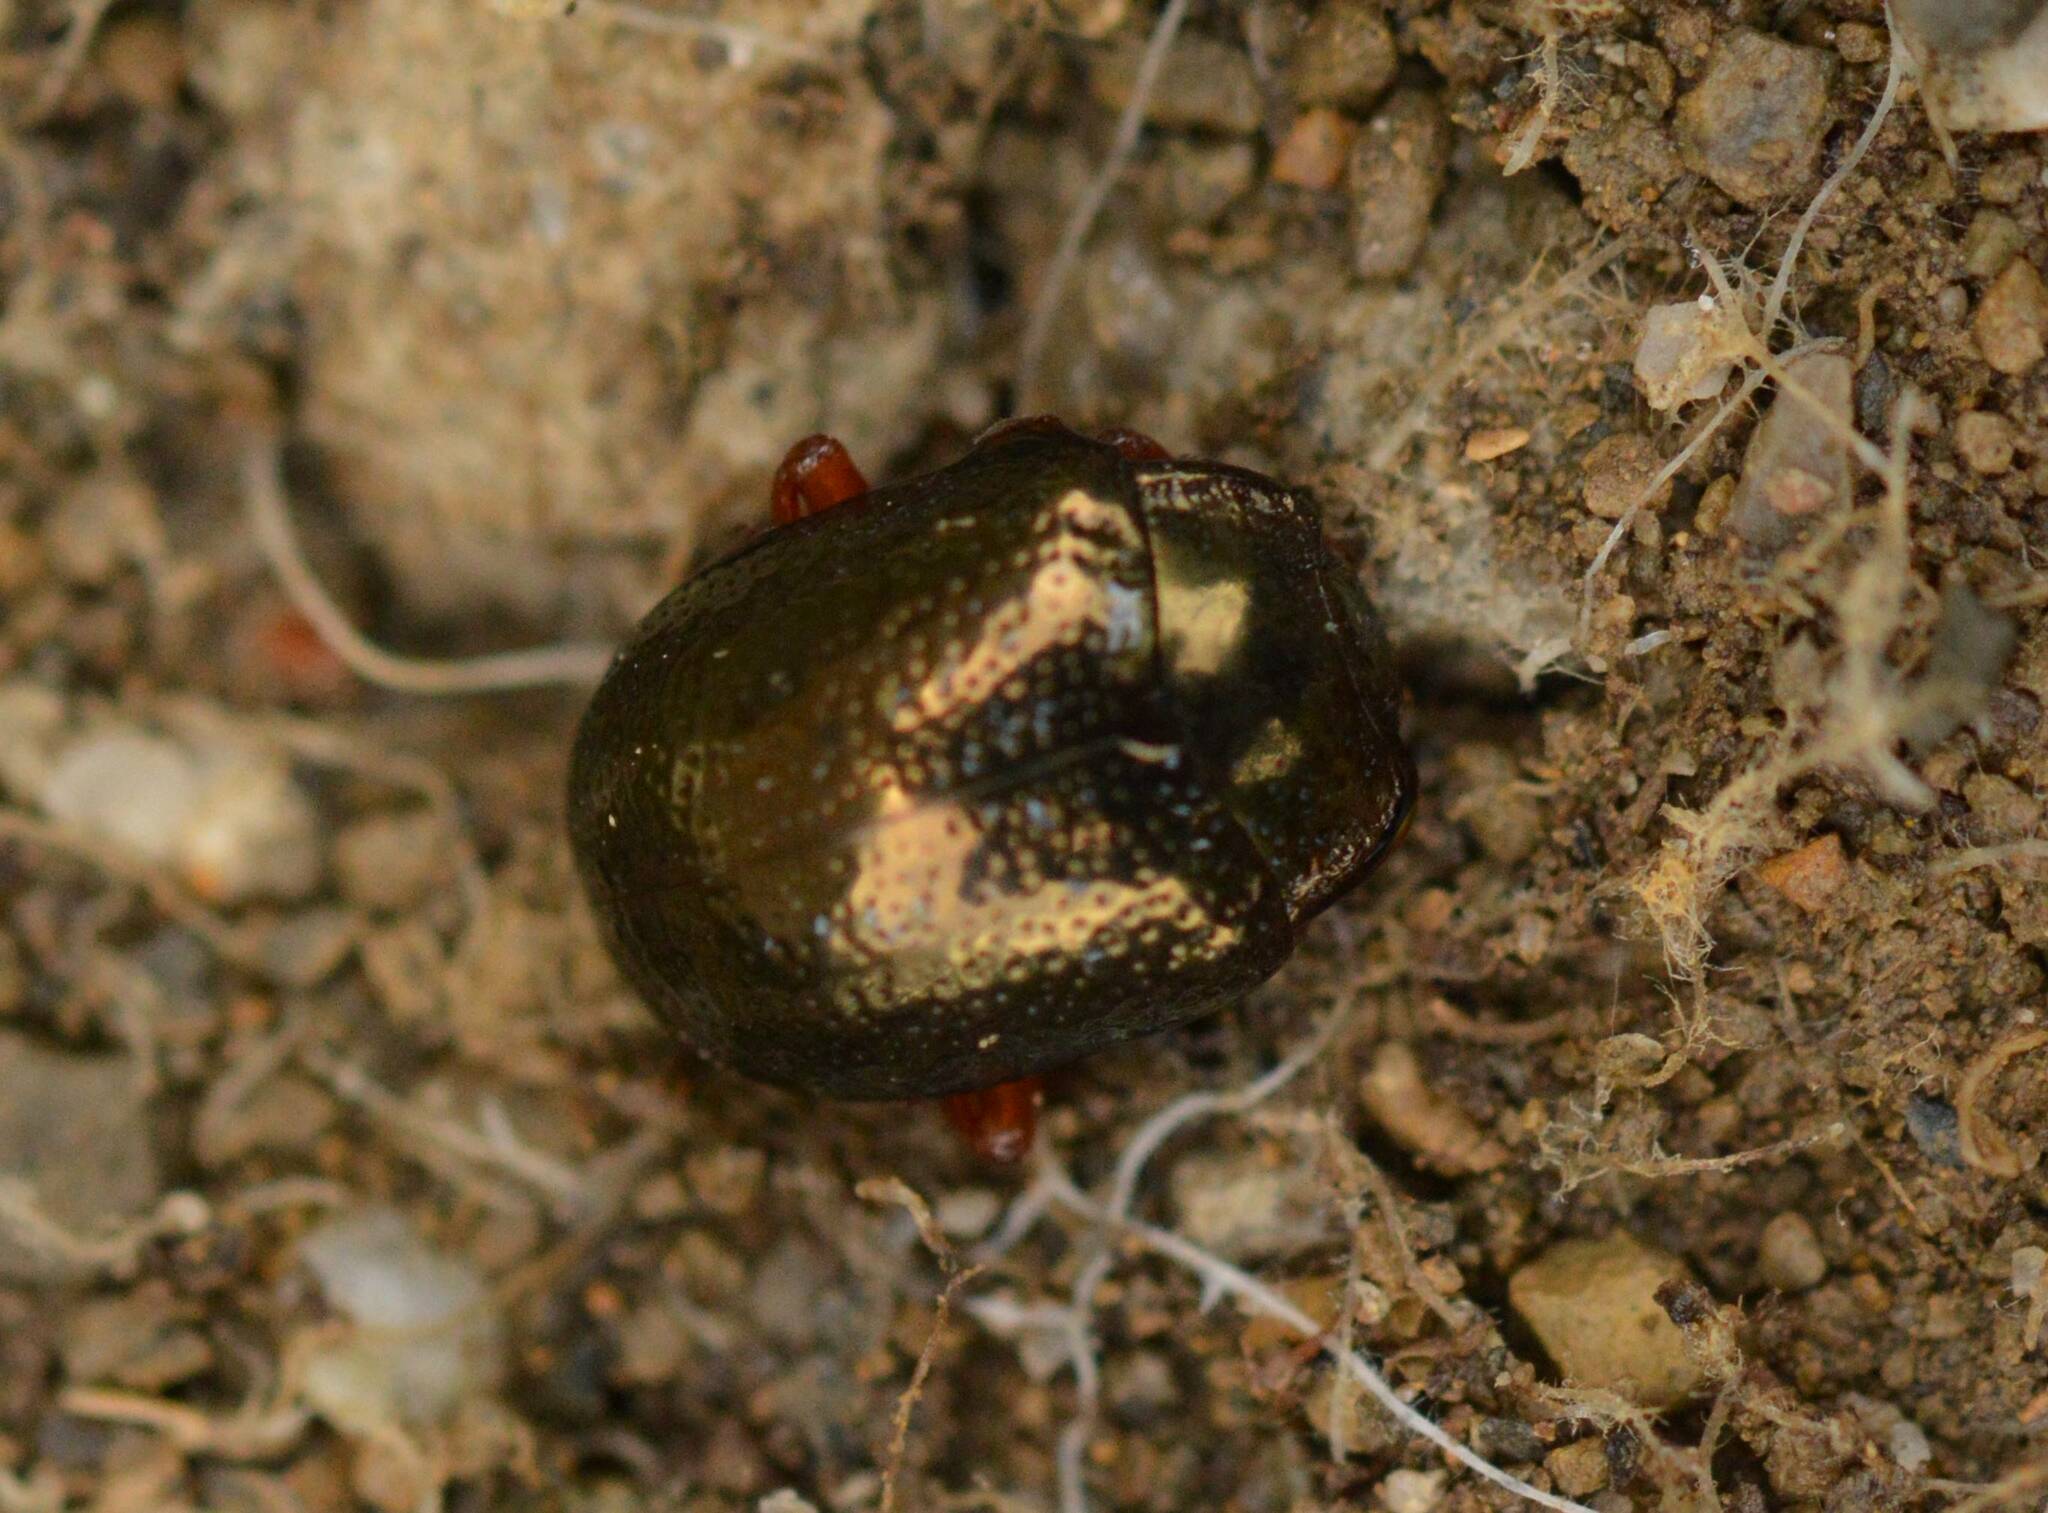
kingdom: Animalia
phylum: Arthropoda
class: Insecta
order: Coleoptera
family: Chrysomelidae
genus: Chrysolina
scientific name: Chrysolina bankii
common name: Leaf beetle
